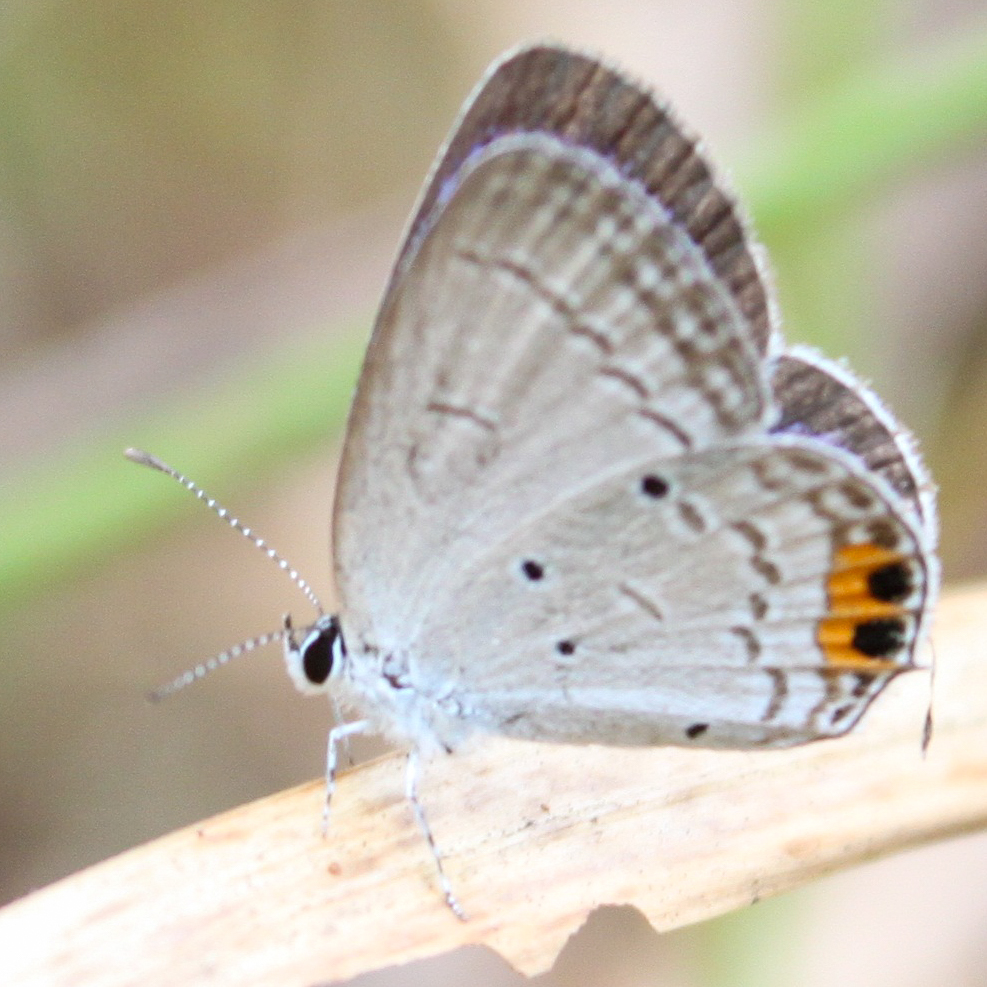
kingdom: Animalia
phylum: Arthropoda
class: Insecta
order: Lepidoptera
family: Lycaenidae
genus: Everes
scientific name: Everes lacturnus
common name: Orange-tipped pea-blue
